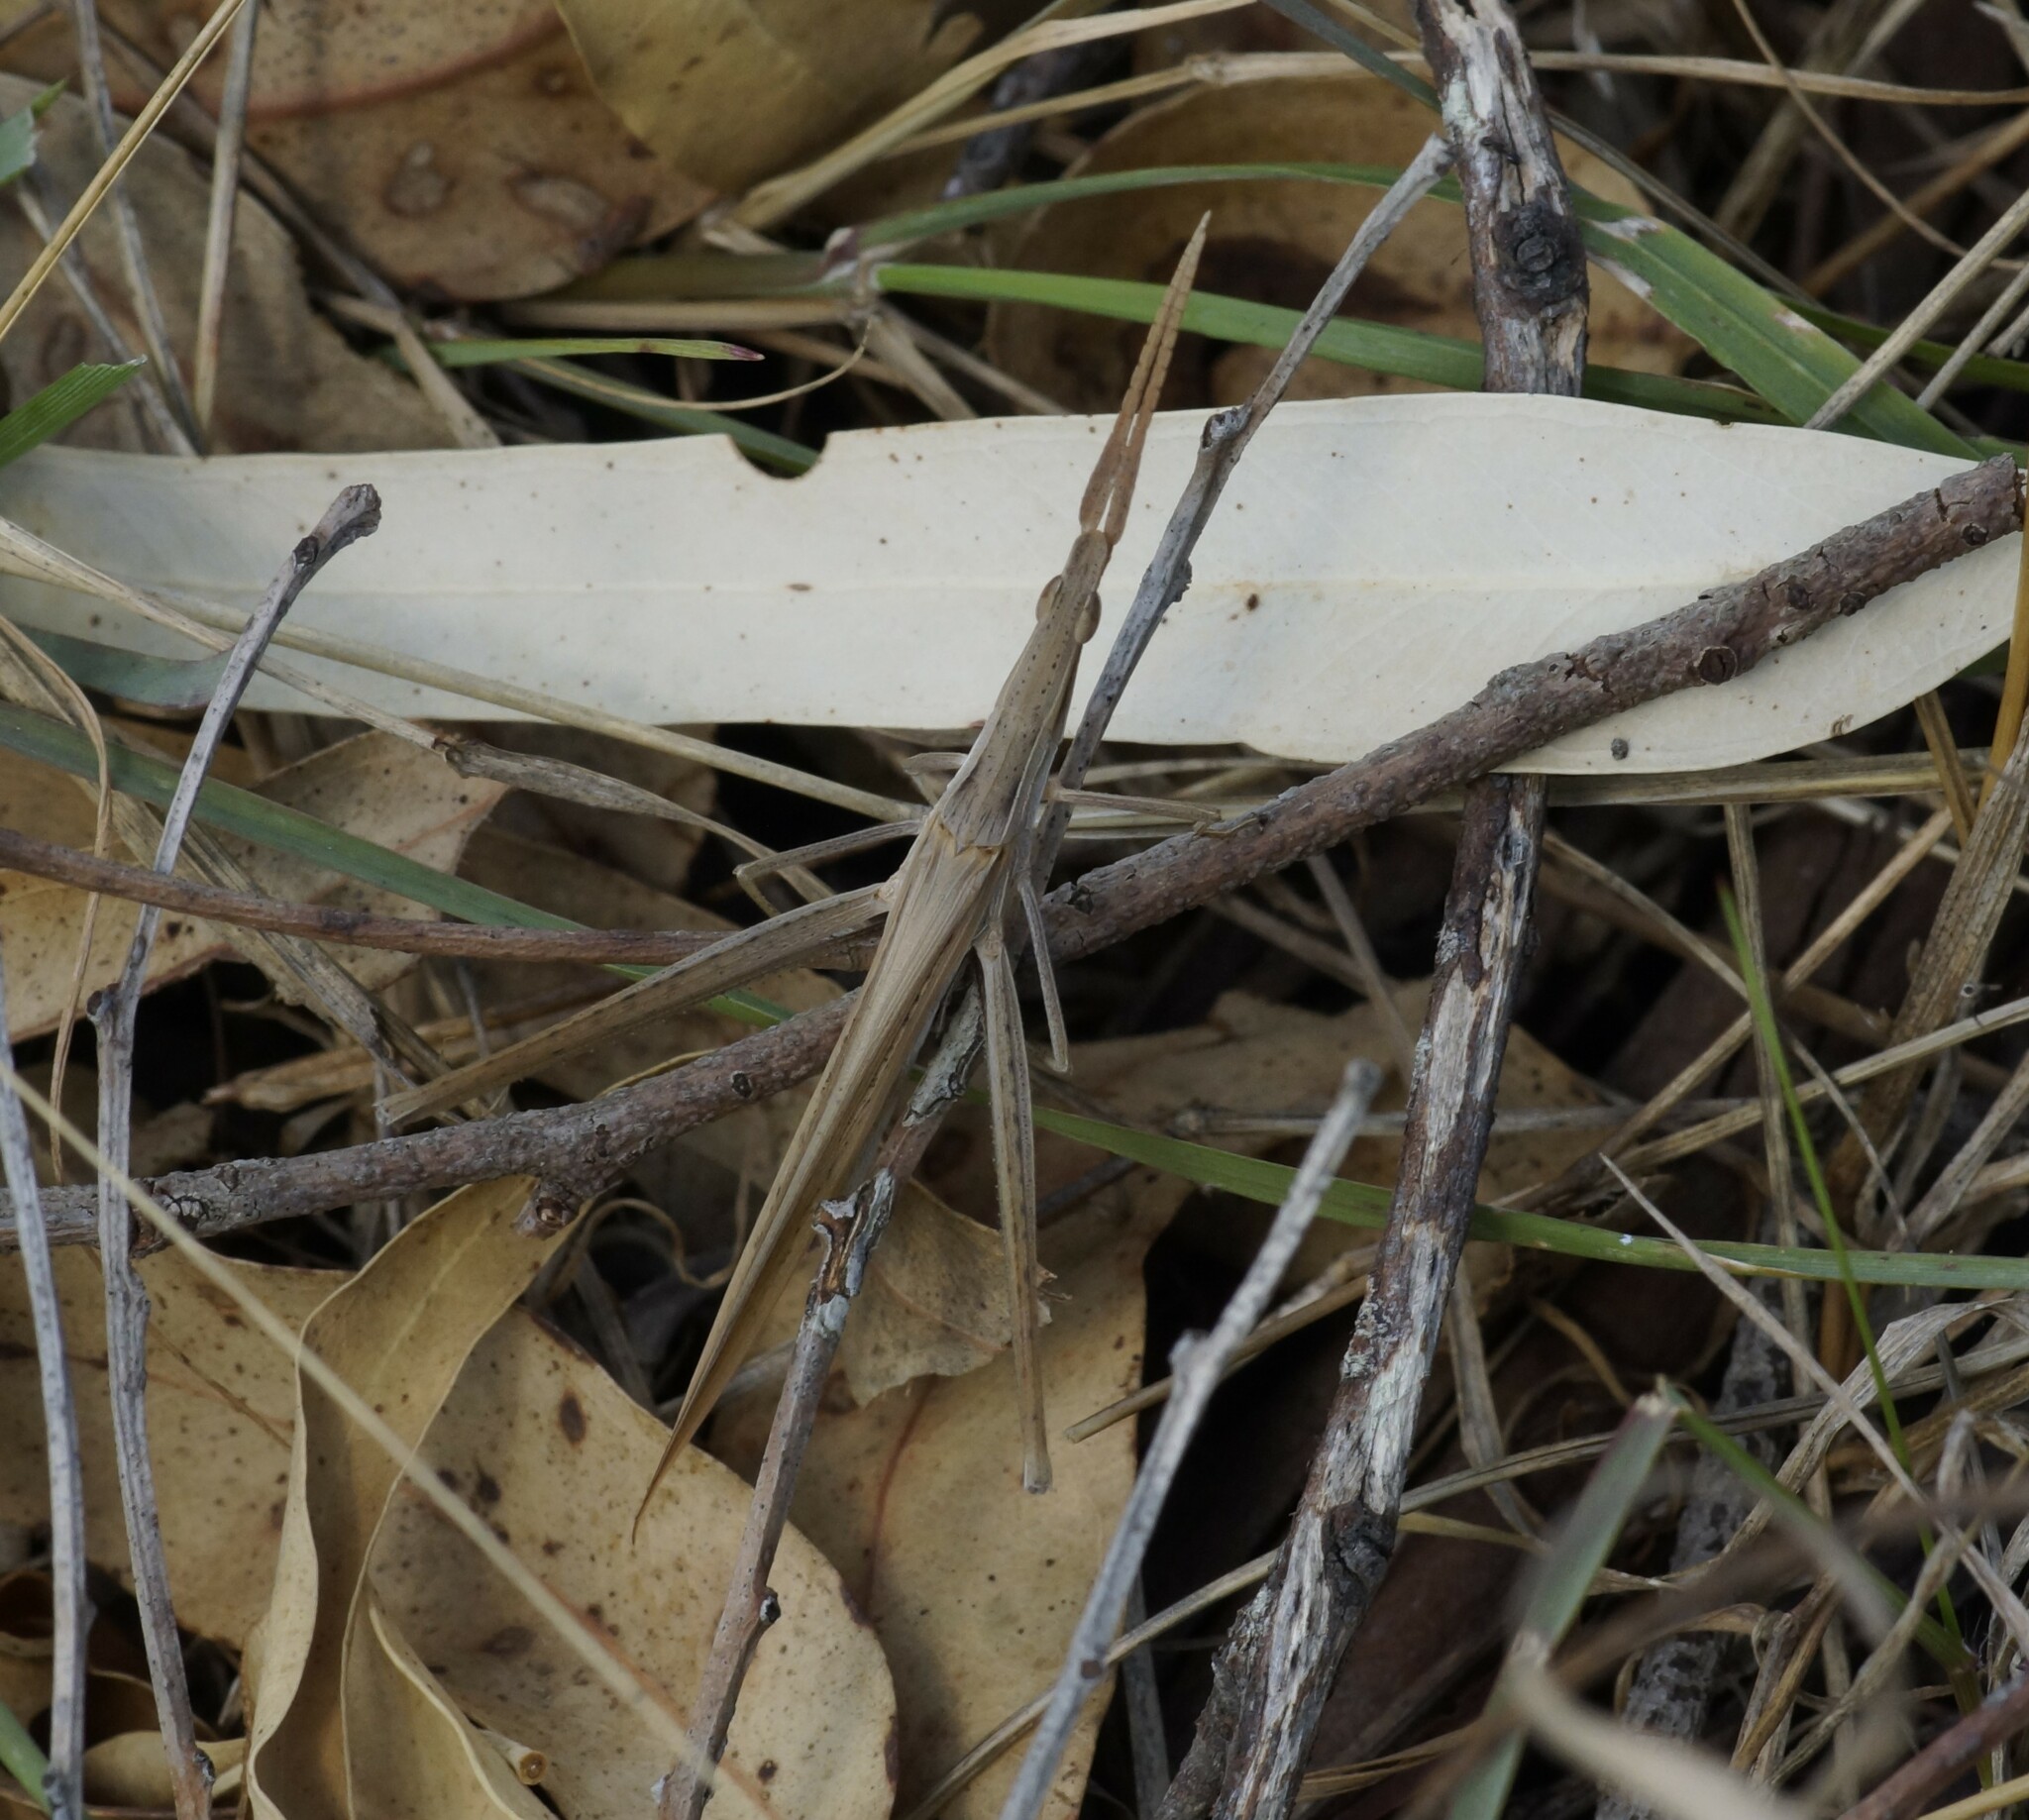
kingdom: Animalia
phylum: Arthropoda
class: Insecta
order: Orthoptera
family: Acrididae
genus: Acrida
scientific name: Acrida conica
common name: Giant green slantface
